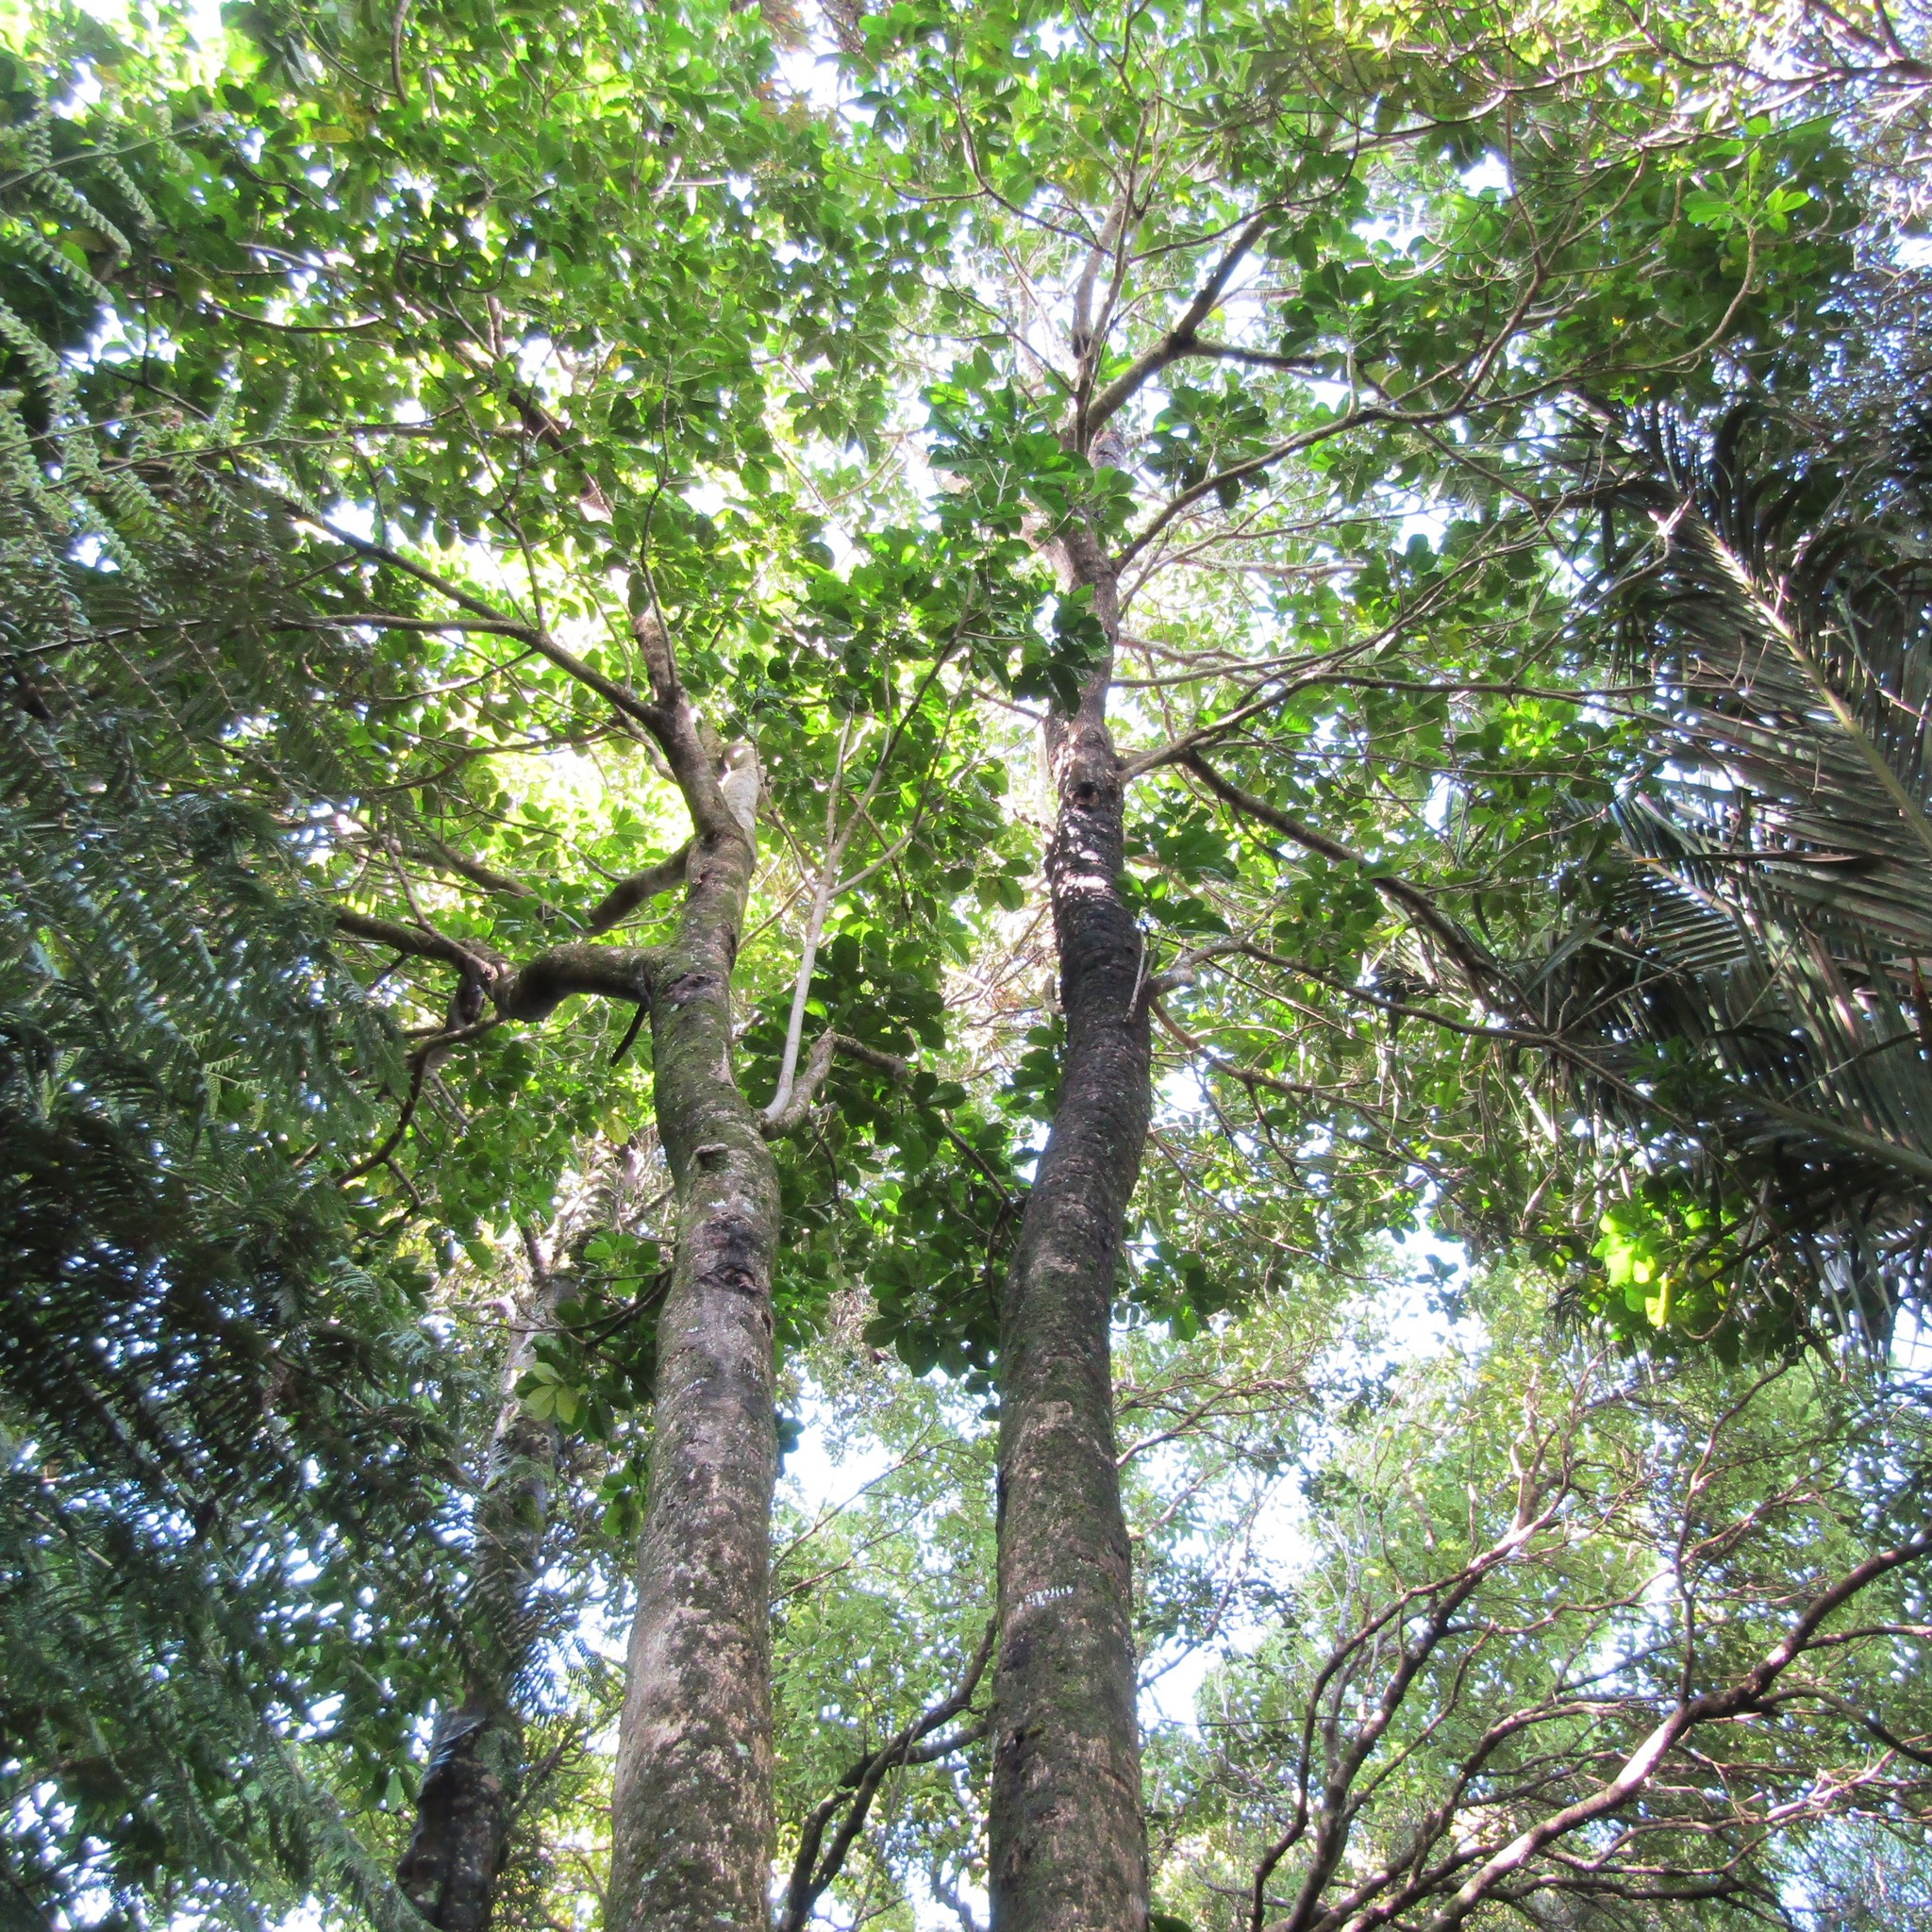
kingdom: Animalia
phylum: Arthropoda
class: Insecta
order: Lepidoptera
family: Hepialidae
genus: Aenetus
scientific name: Aenetus virescens
